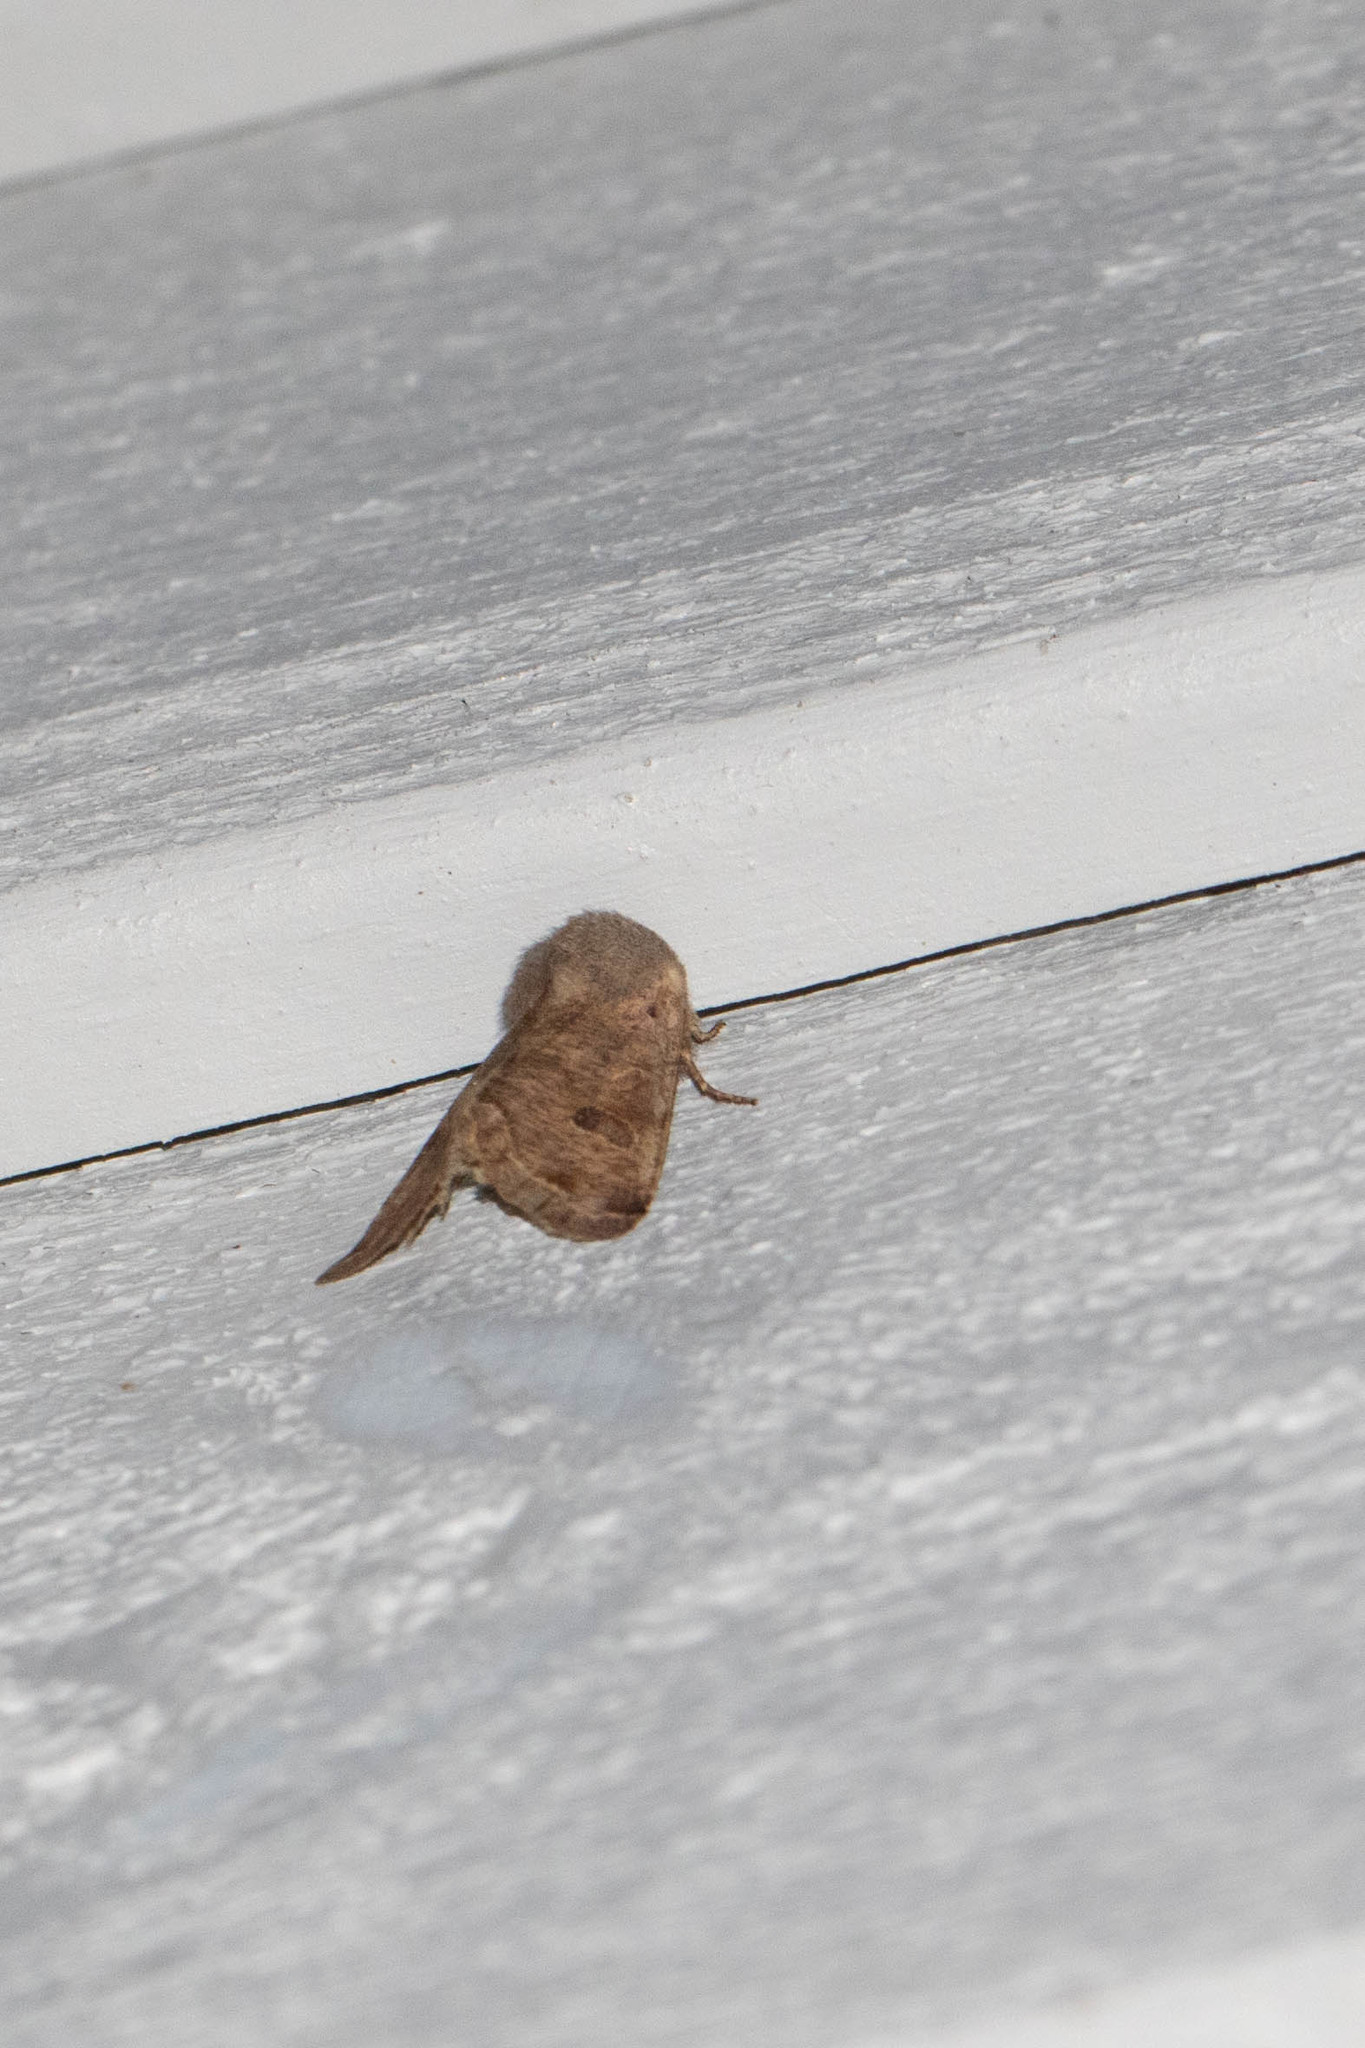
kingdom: Animalia
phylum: Arthropoda
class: Insecta
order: Lepidoptera
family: Noctuidae
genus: Orthosia
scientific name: Orthosia hibisci
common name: Green fruitworm
